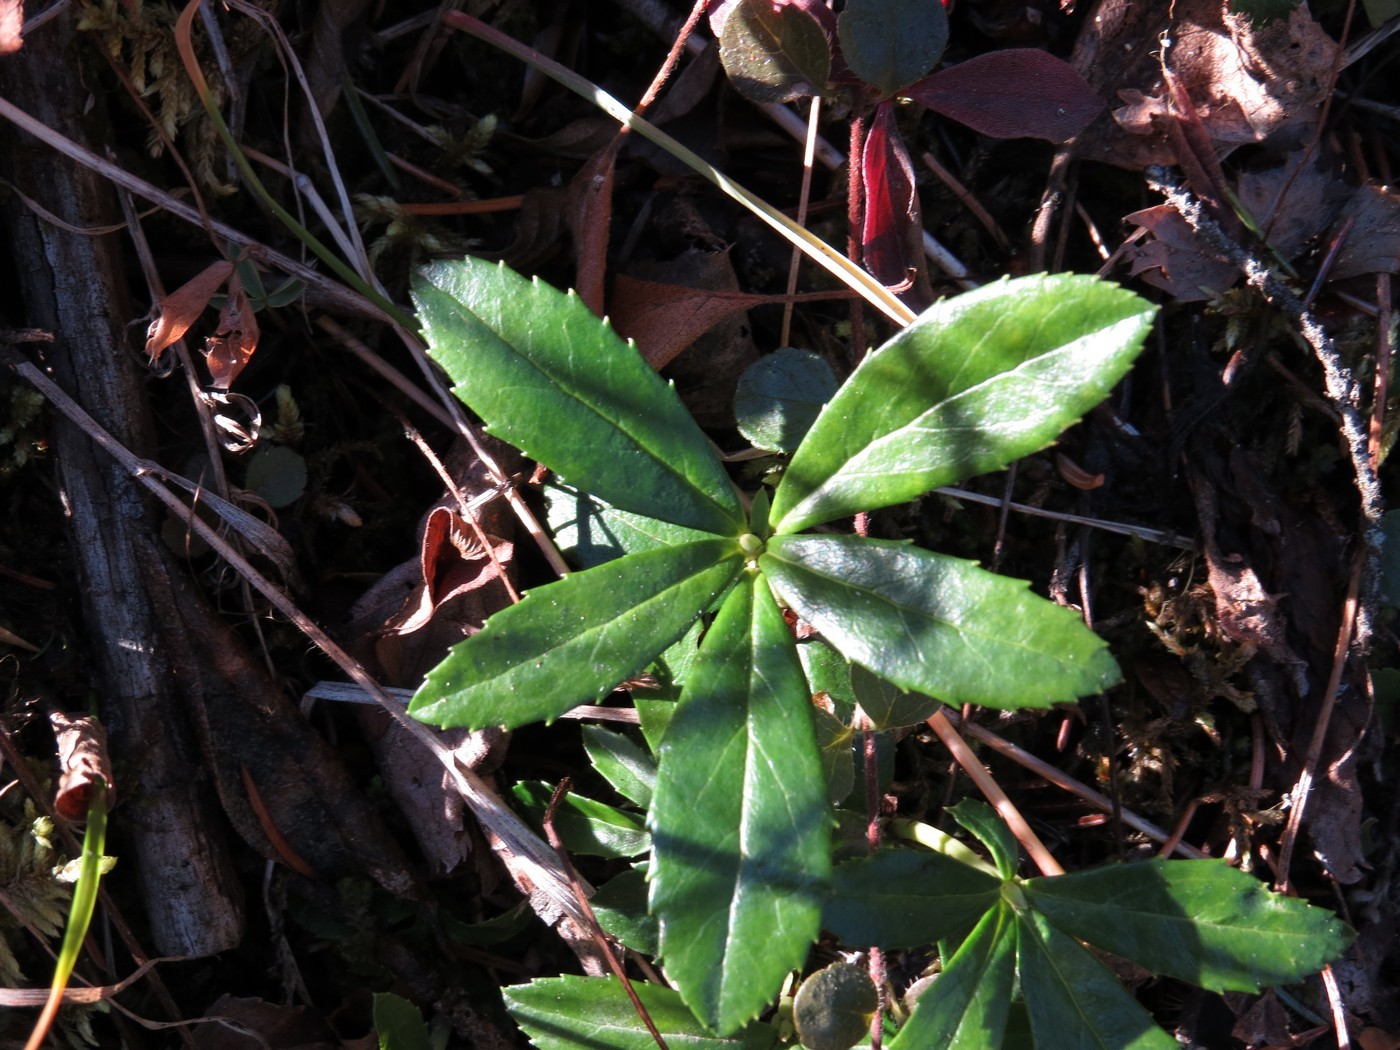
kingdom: Plantae
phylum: Tracheophyta
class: Magnoliopsida
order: Ericales
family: Ericaceae
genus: Chimaphila
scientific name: Chimaphila umbellata
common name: Pipsissewa
